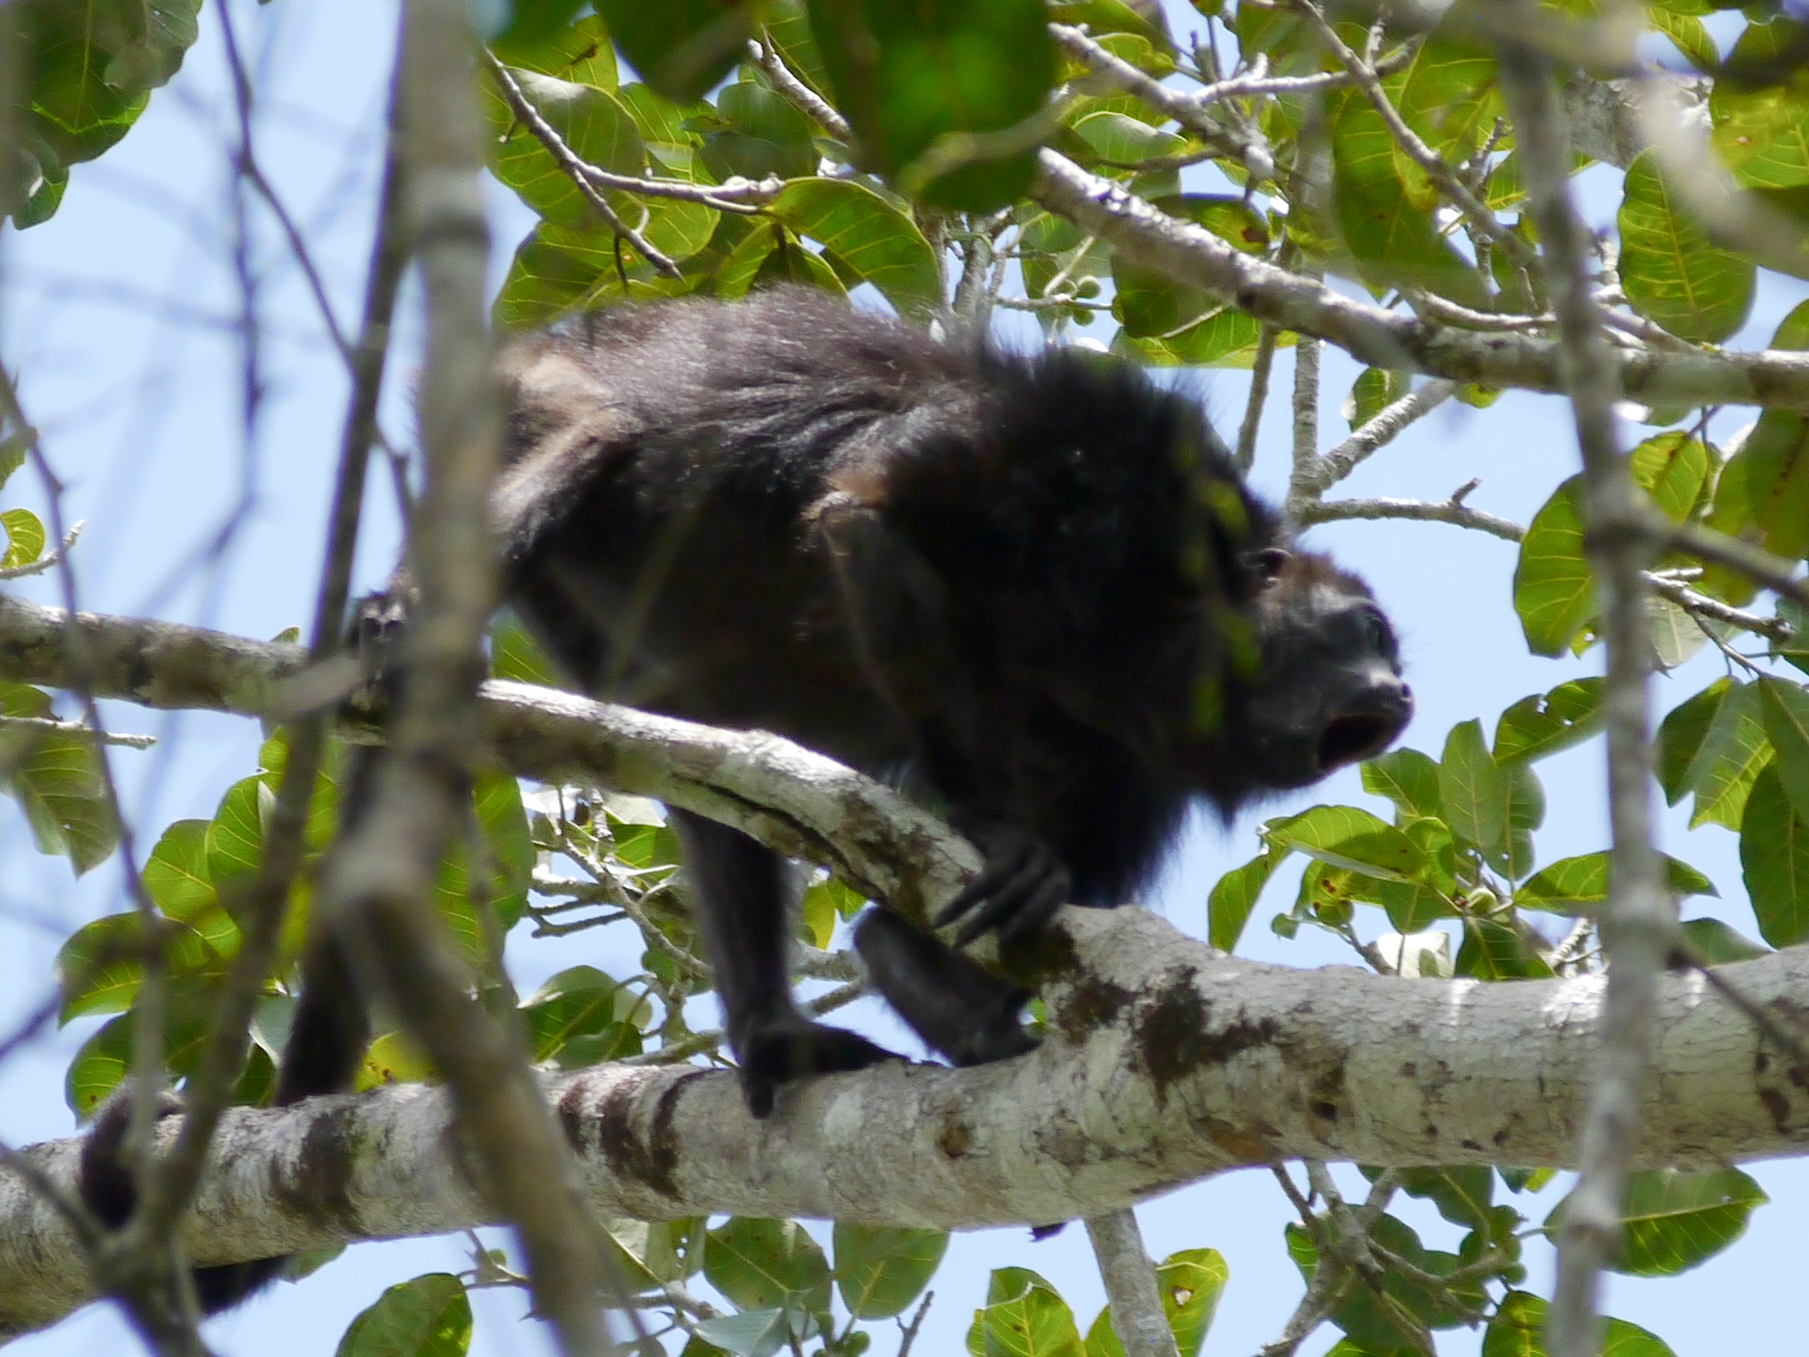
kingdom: Animalia
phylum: Chordata
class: Mammalia
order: Primates
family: Atelidae
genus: Alouatta
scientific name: Alouatta pigra
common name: Guatemalan black howler
